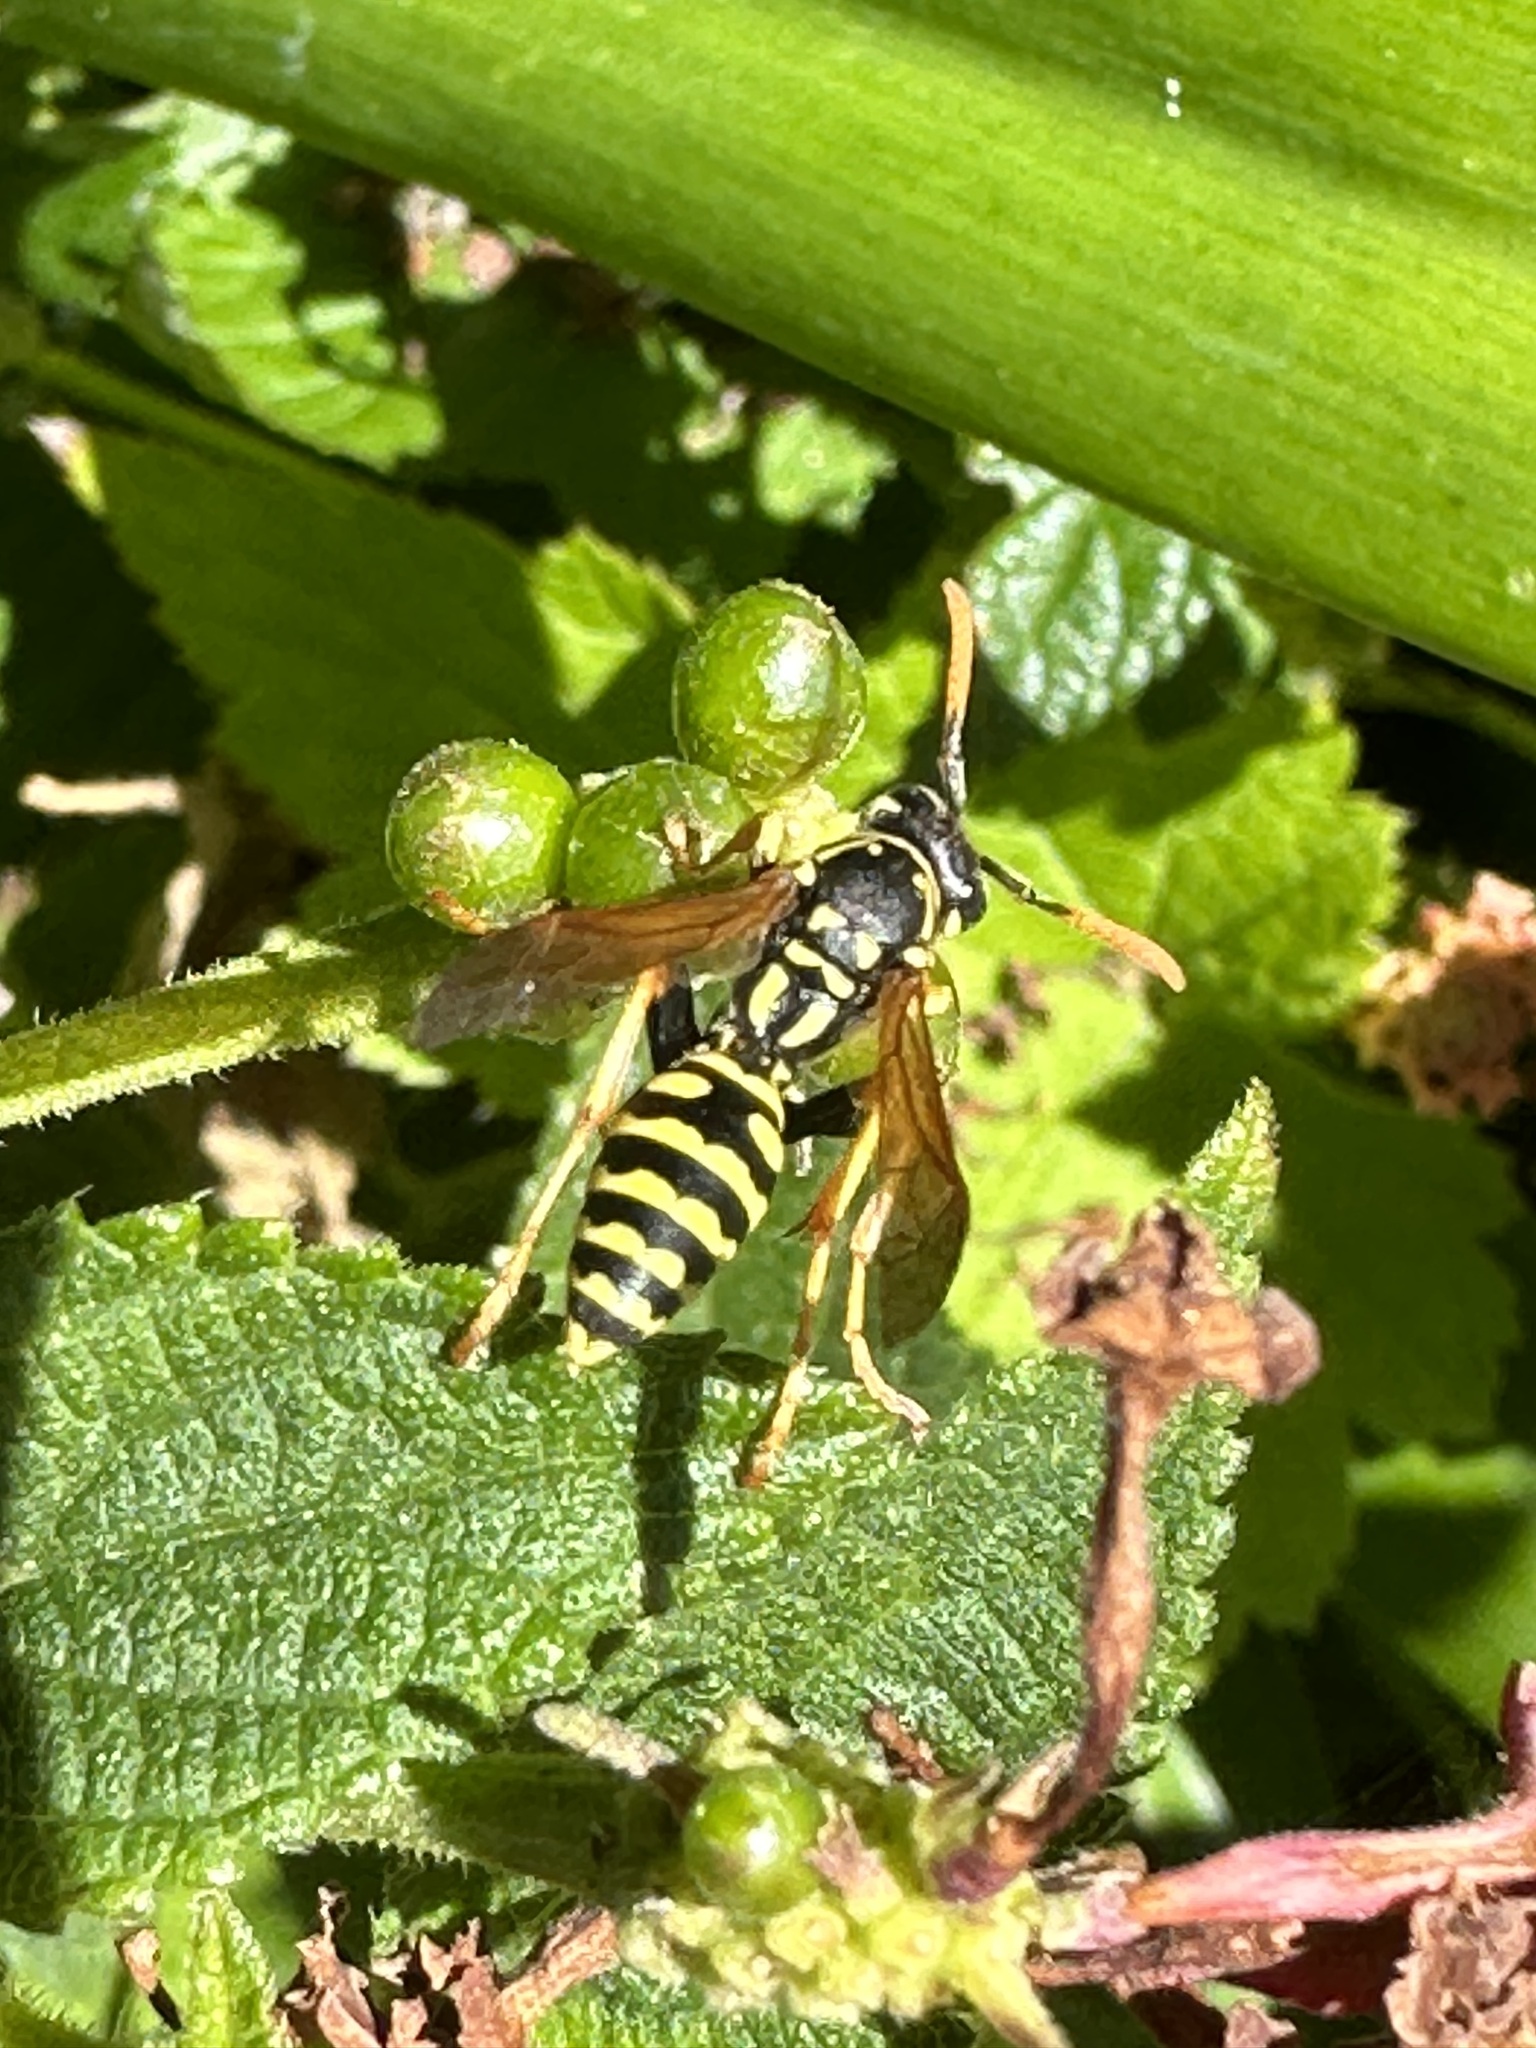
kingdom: Animalia
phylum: Arthropoda
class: Insecta
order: Hymenoptera
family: Eumenidae
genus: Polistes
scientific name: Polistes dominula
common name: Paper wasp
